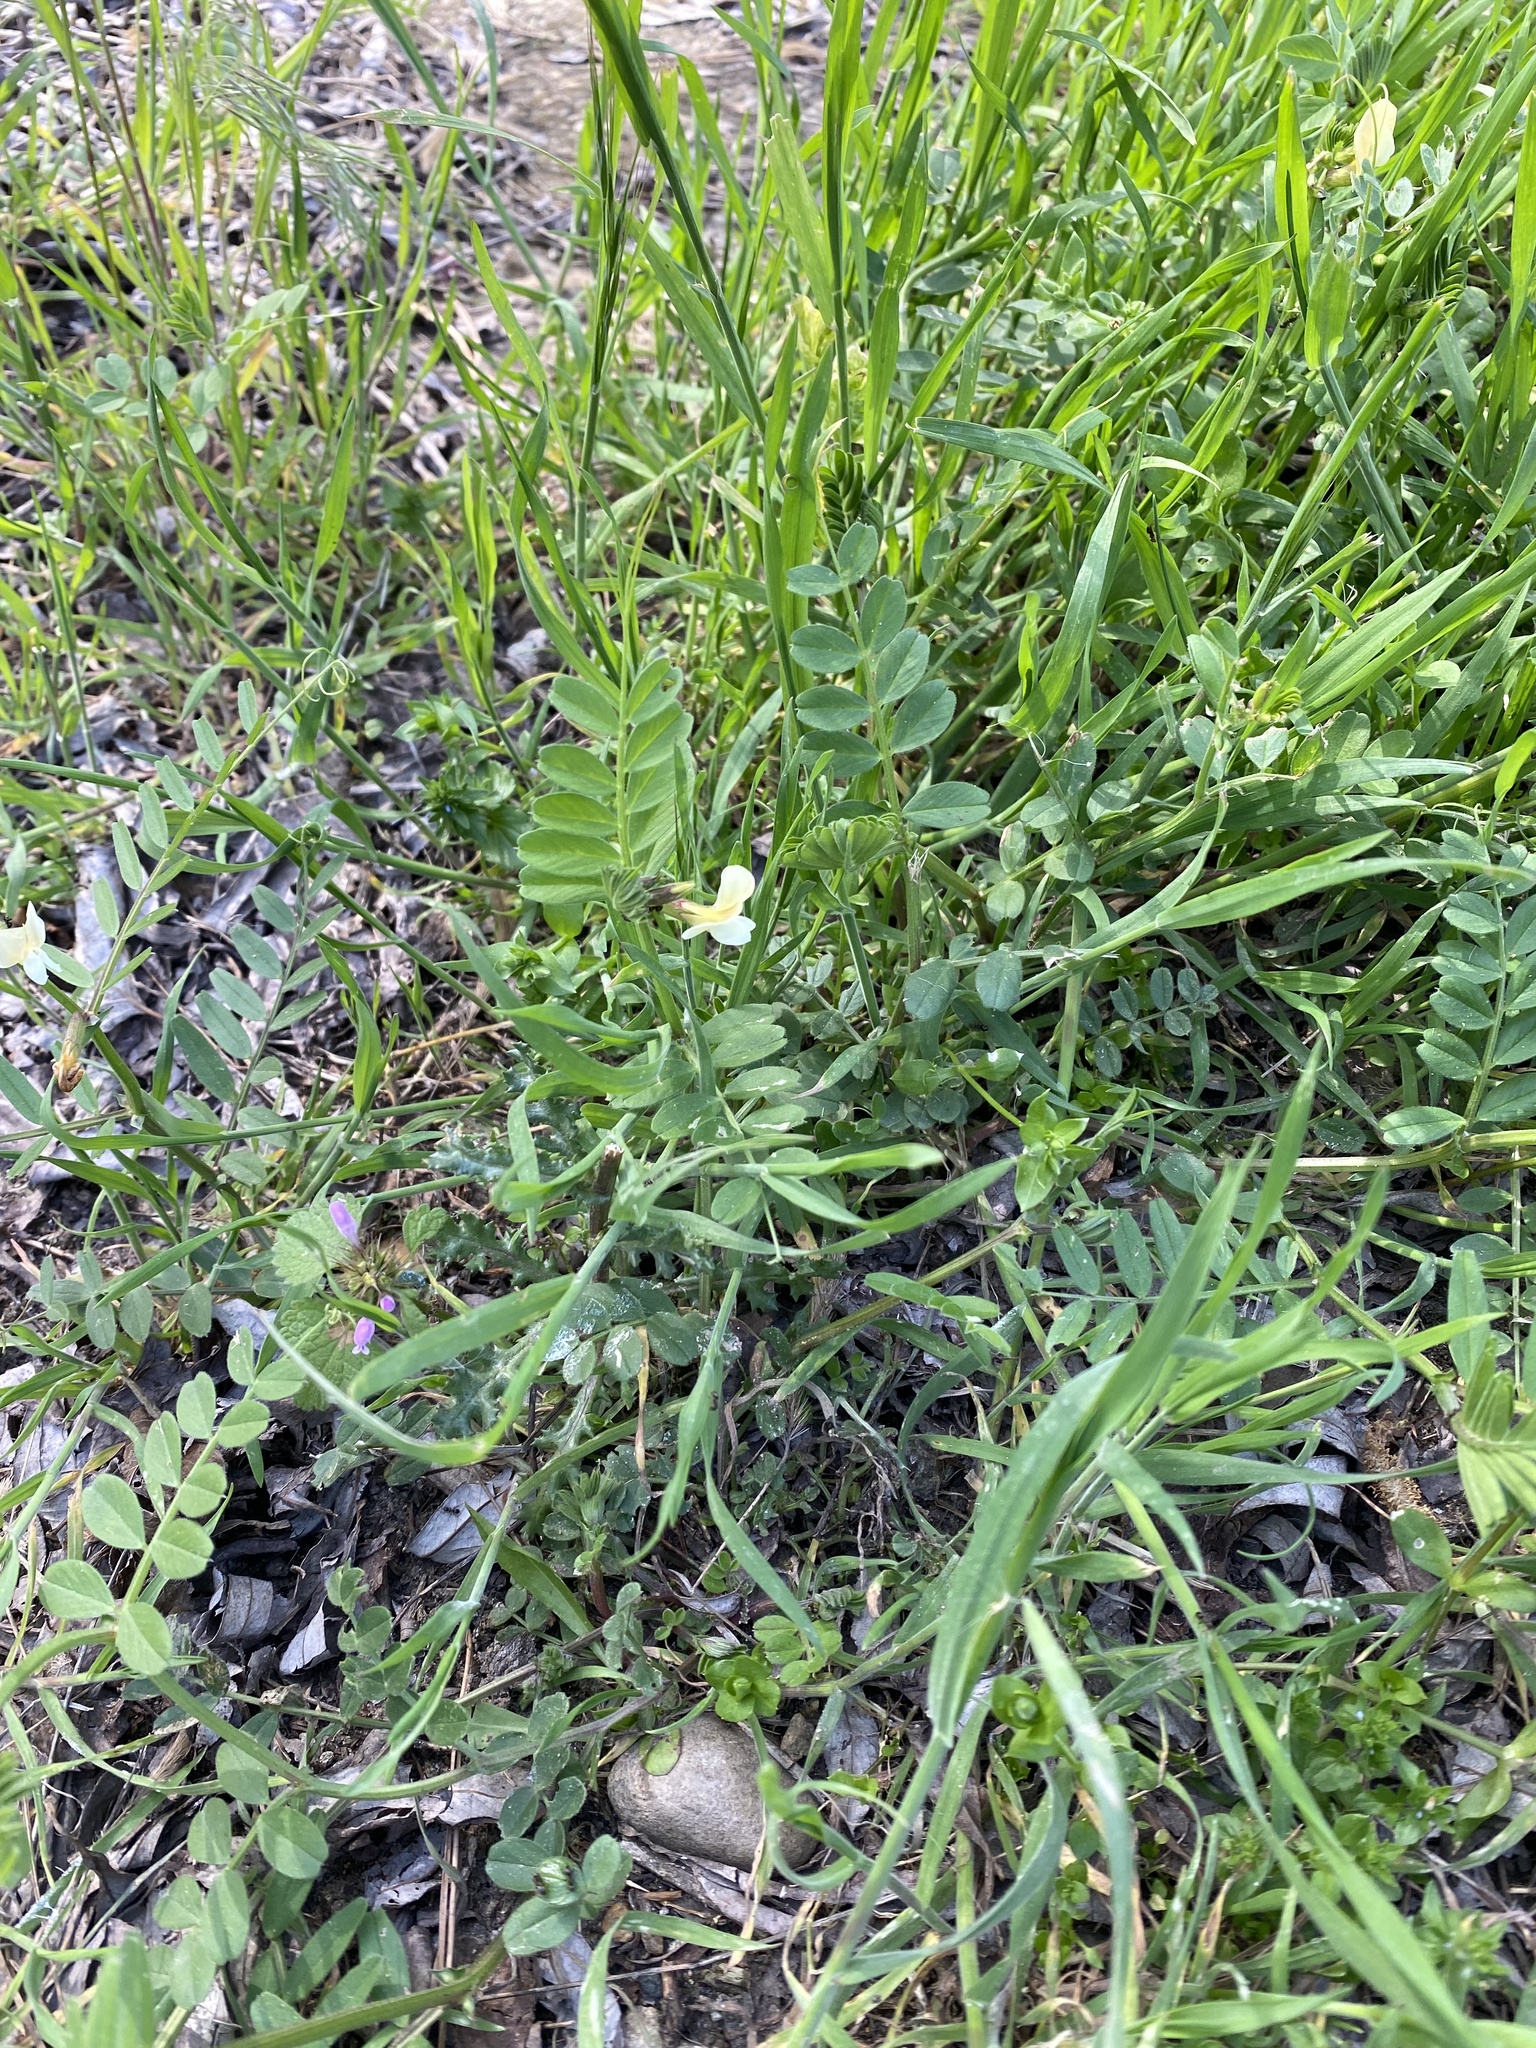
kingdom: Plantae
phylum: Tracheophyta
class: Magnoliopsida
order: Fabales
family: Fabaceae
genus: Vicia
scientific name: Vicia grandiflora
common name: Large yellow vetch
